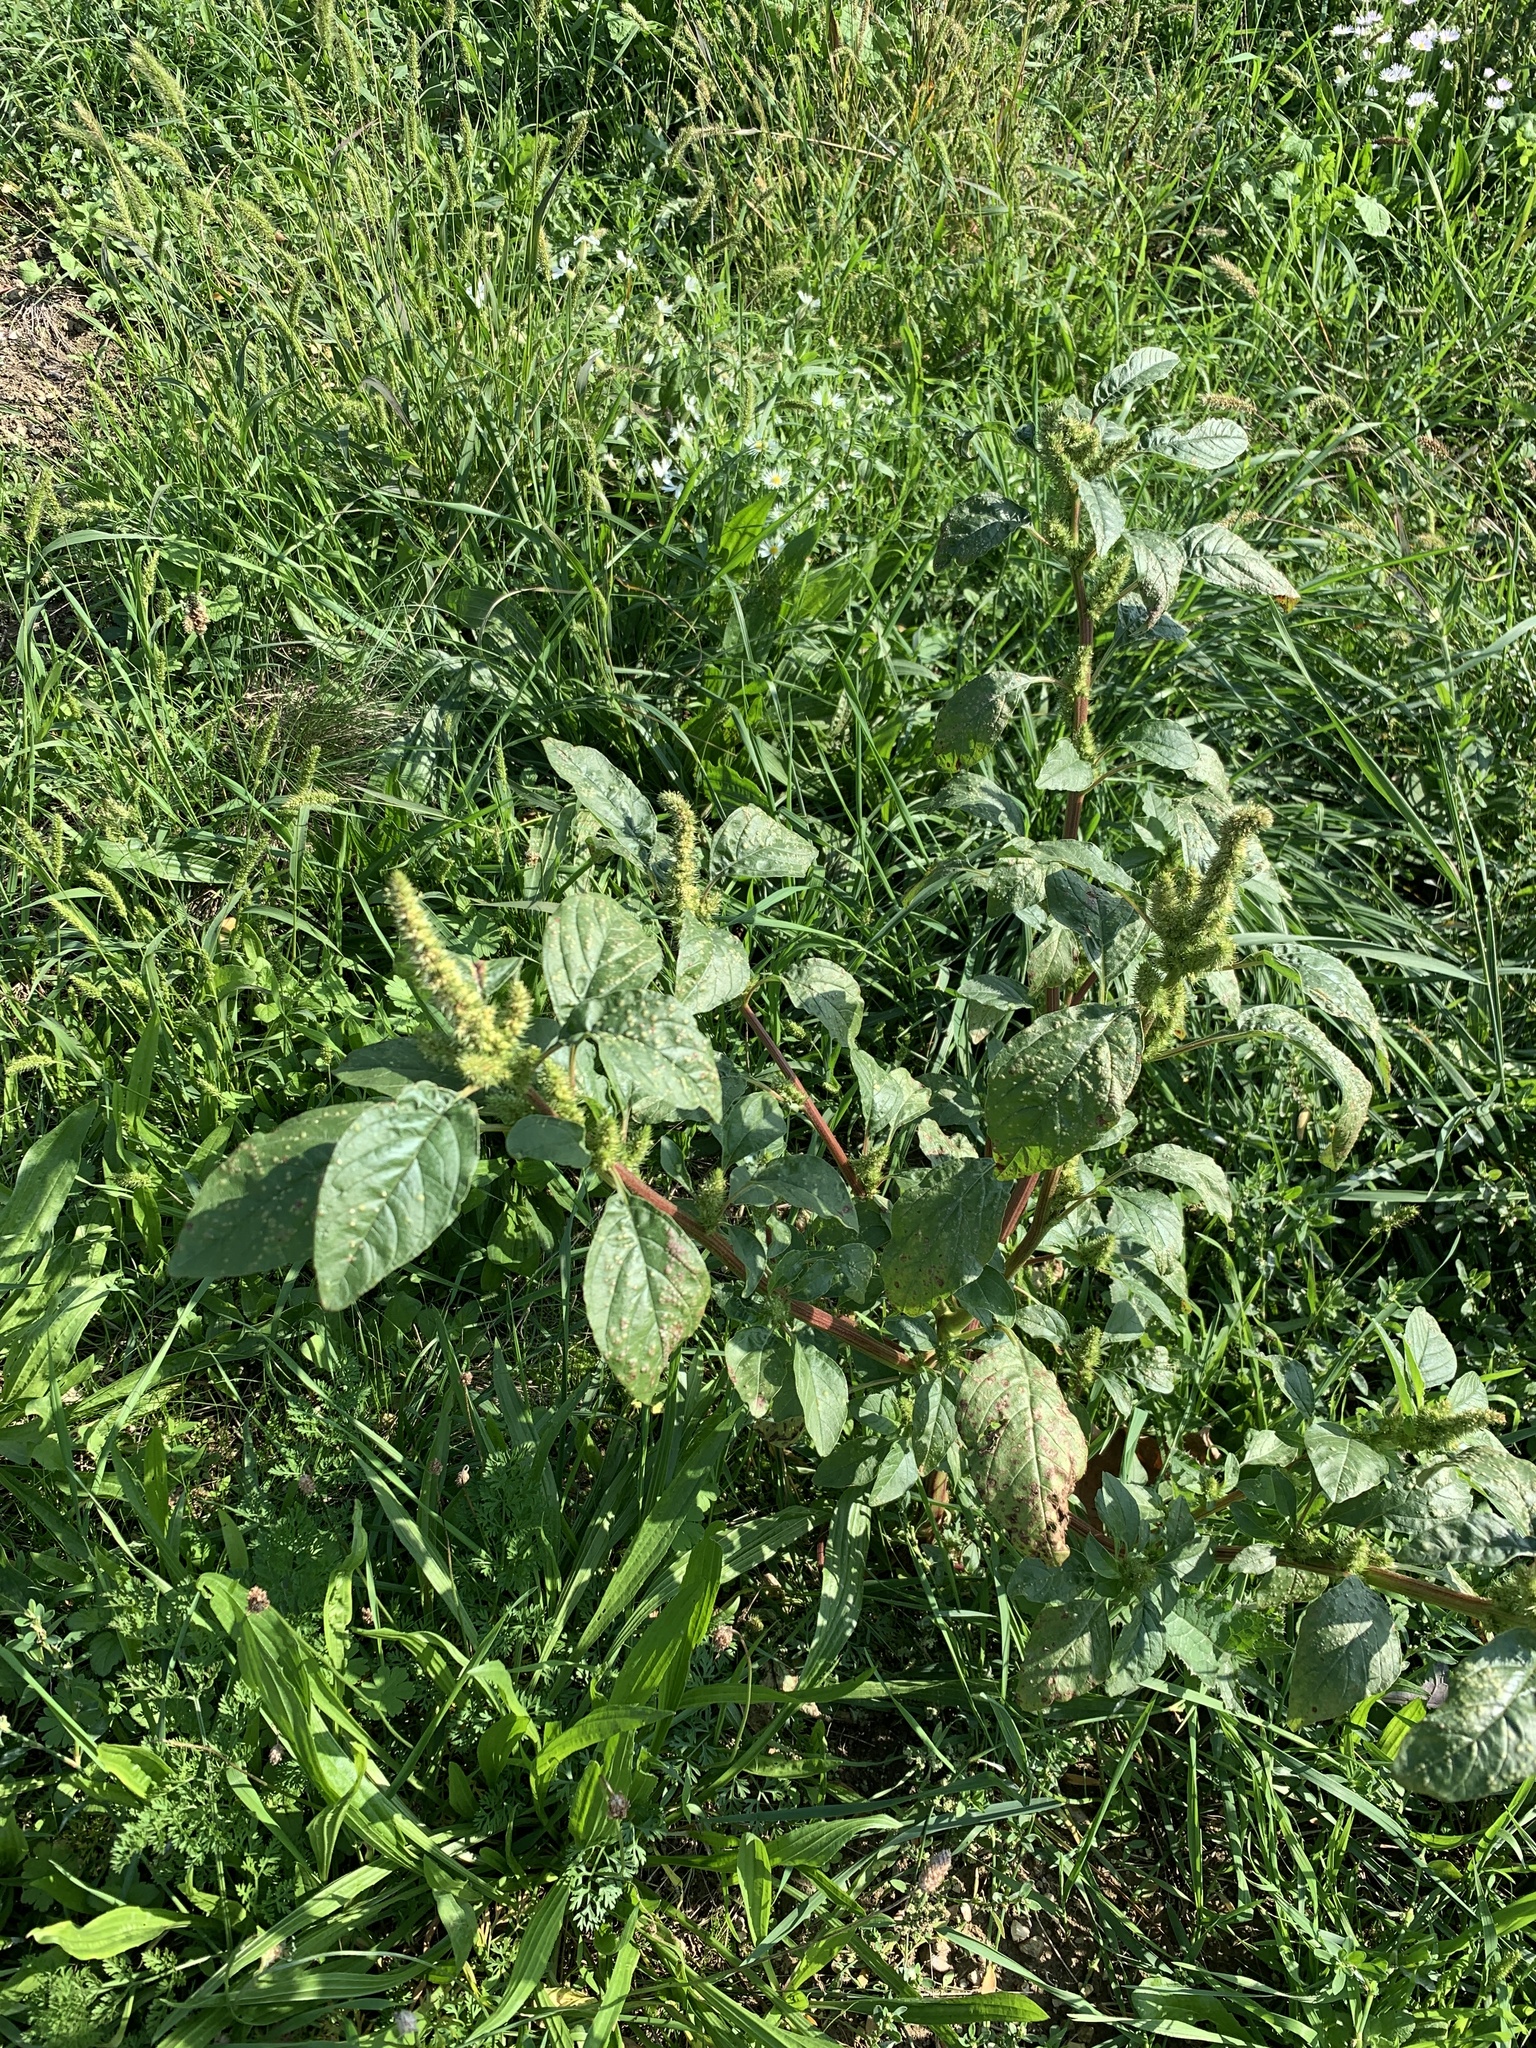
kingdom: Plantae
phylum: Tracheophyta
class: Magnoliopsida
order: Caryophyllales
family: Amaranthaceae
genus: Amaranthus
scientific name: Amaranthus retroflexus
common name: Redroot amaranth
